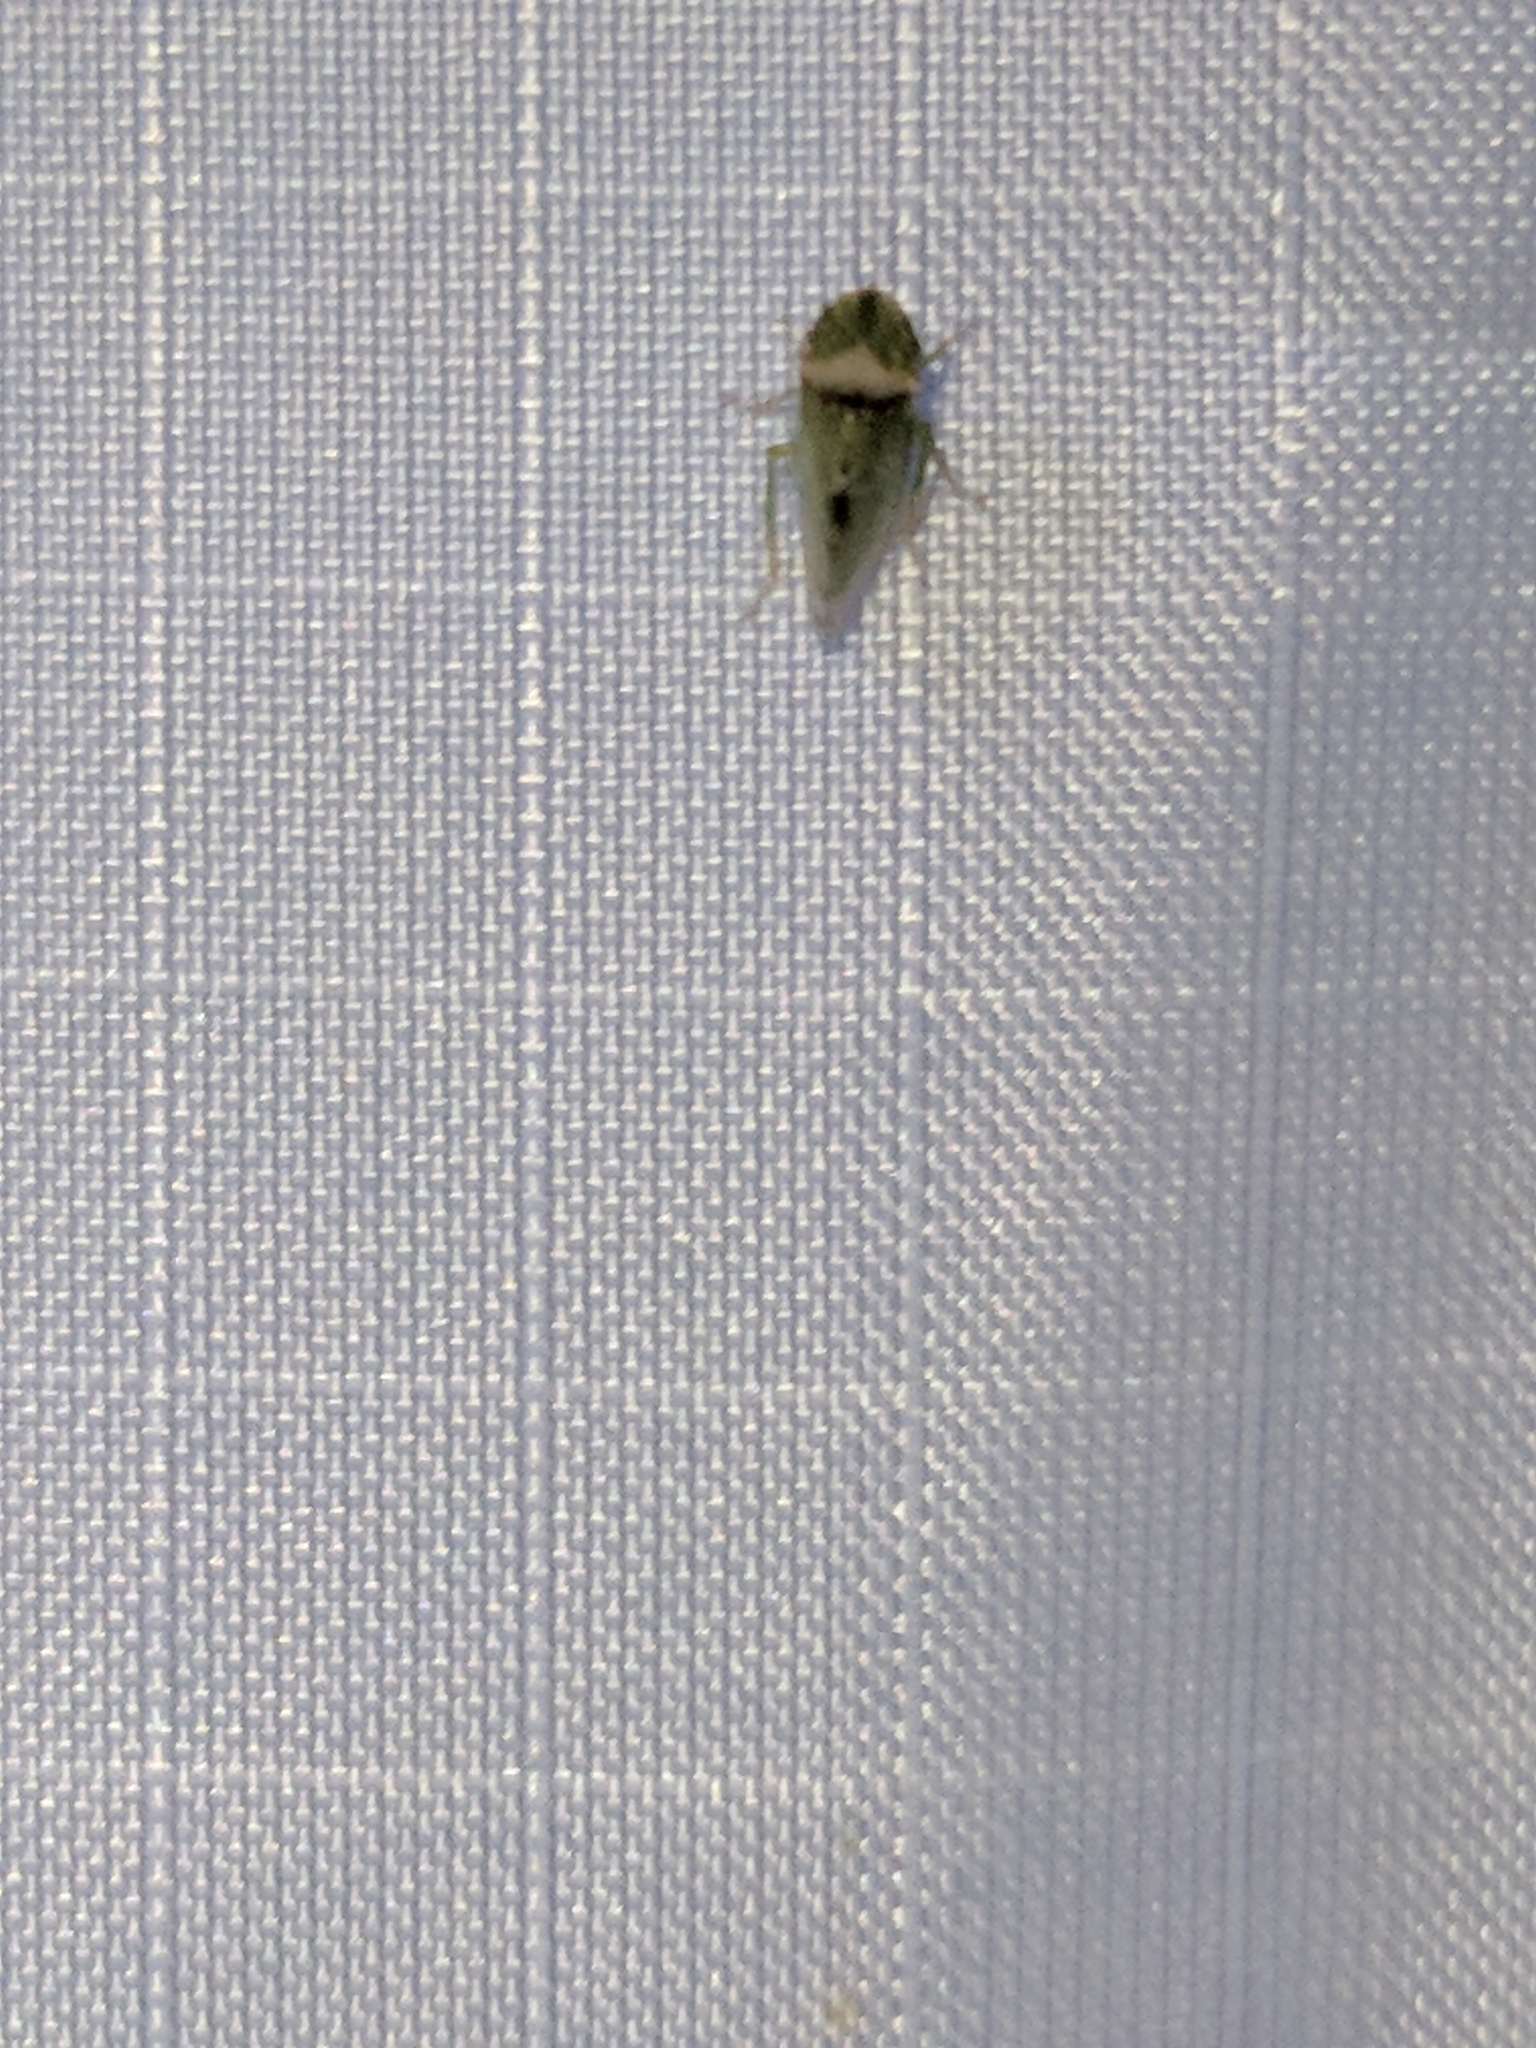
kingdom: Animalia
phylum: Arthropoda
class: Insecta
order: Hemiptera
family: Cicadellidae
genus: Xerophloea
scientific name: Xerophloea viridis
